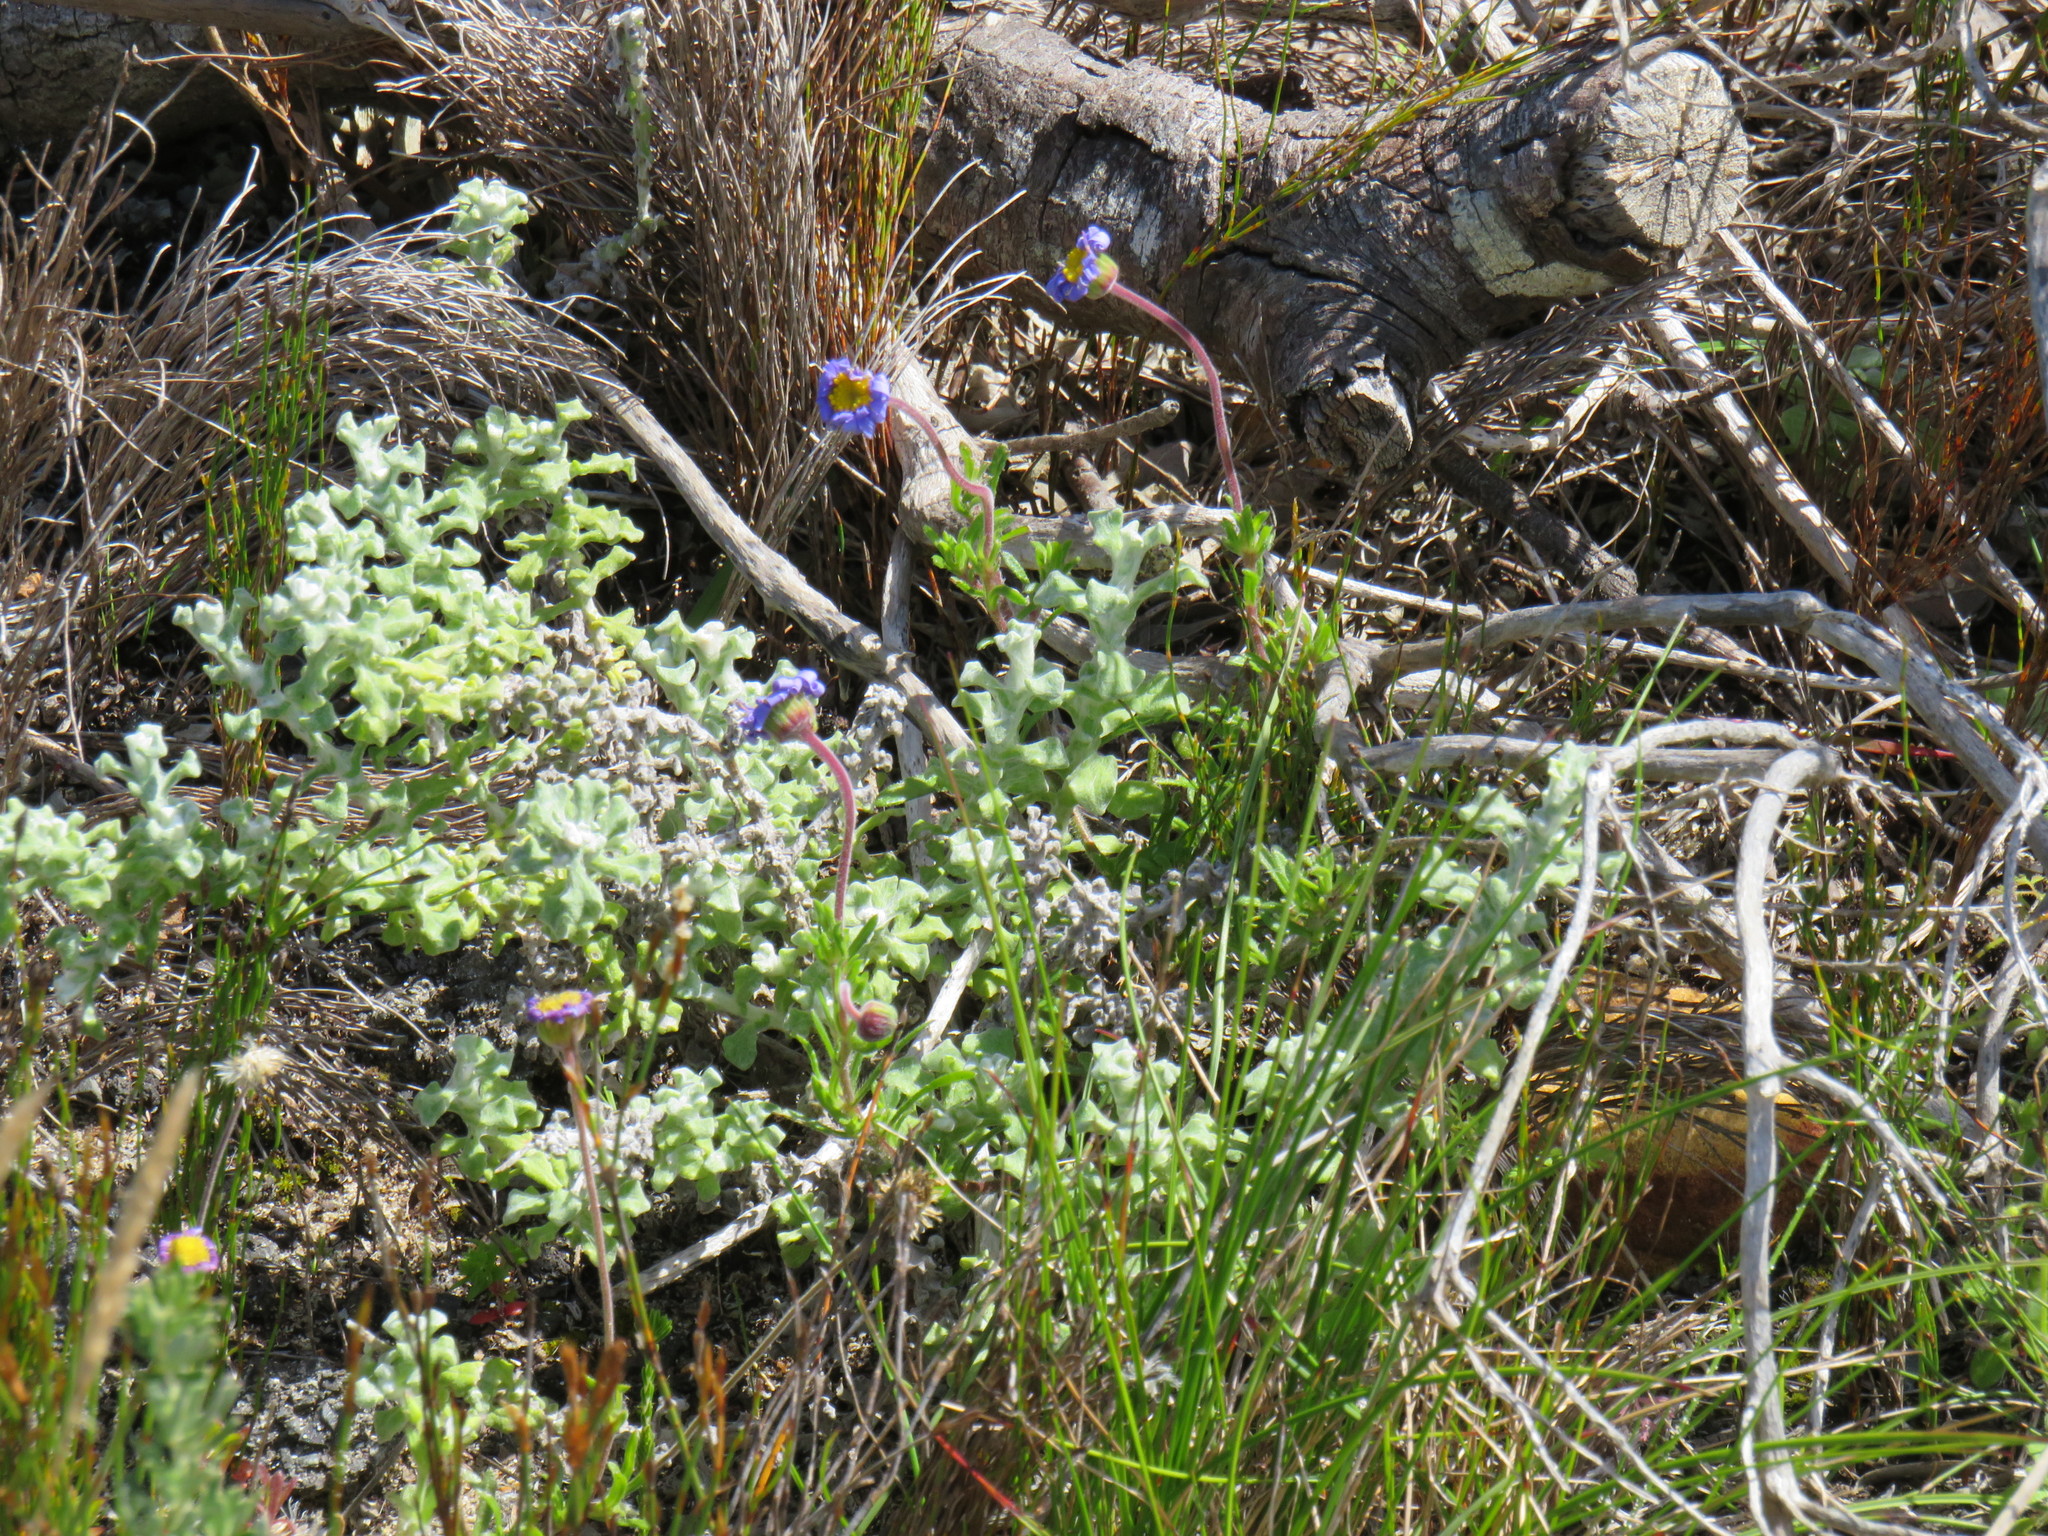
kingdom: Plantae
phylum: Tracheophyta
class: Magnoliopsida
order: Asterales
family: Asteraceae
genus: Felicia
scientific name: Felicia amoena
